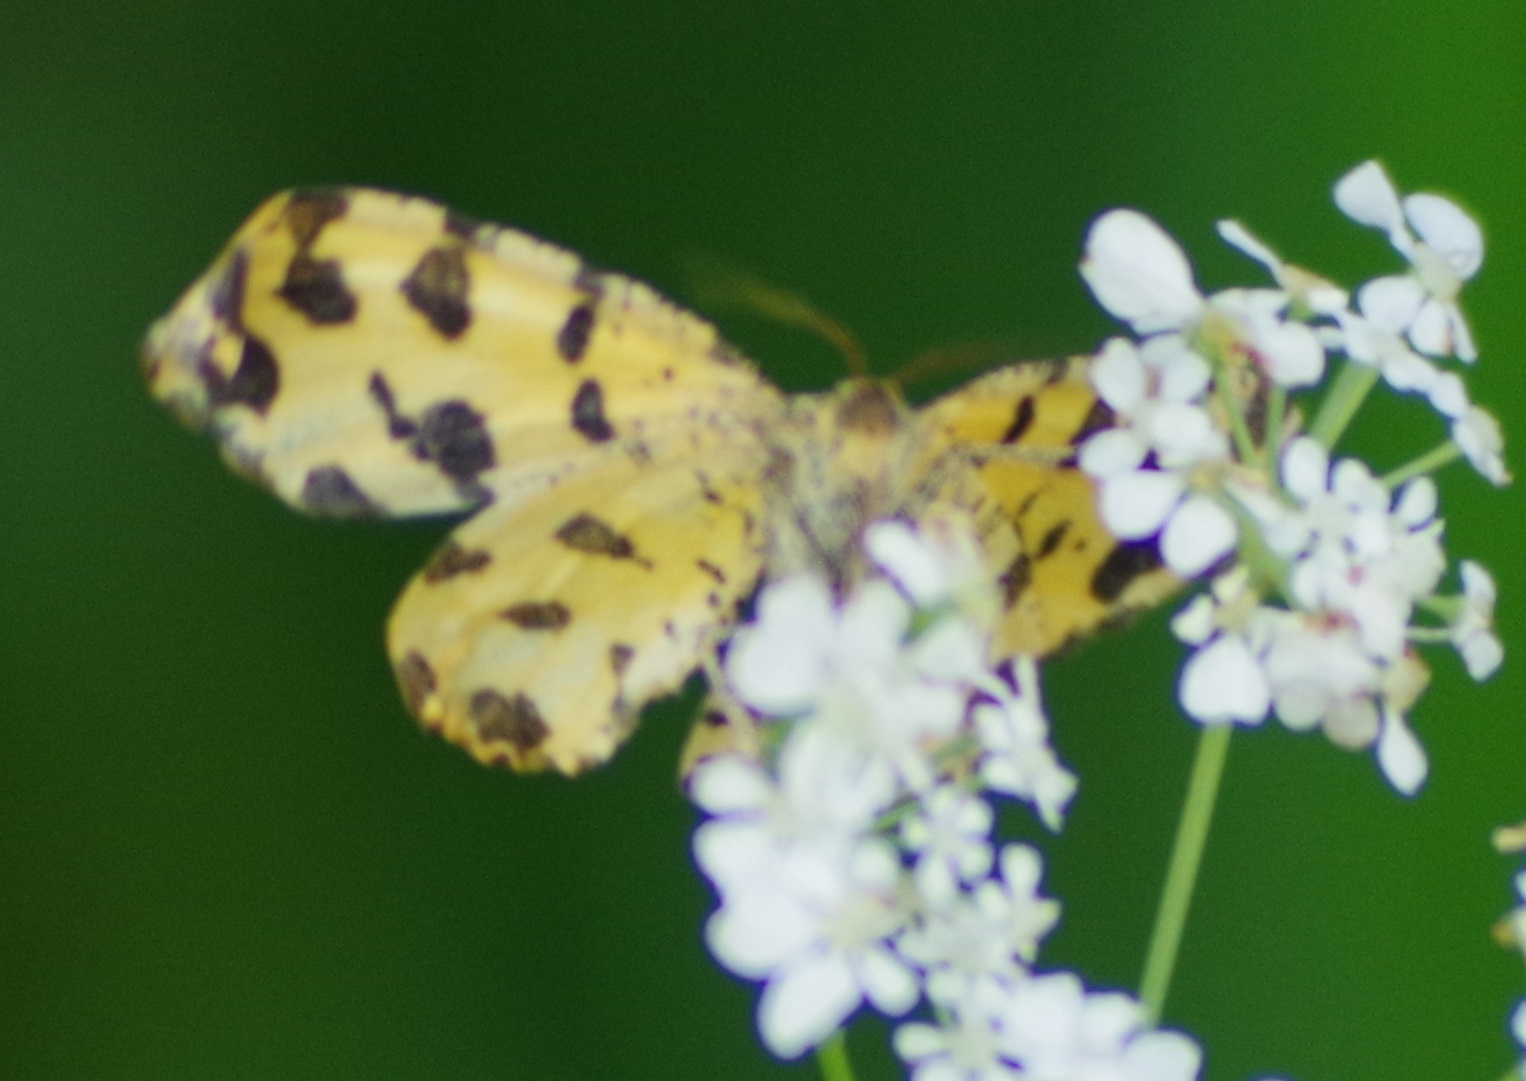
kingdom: Animalia
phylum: Arthropoda
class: Insecta
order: Lepidoptera
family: Geometridae
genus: Pseudopanthera
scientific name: Pseudopanthera macularia
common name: Speckled yellow
